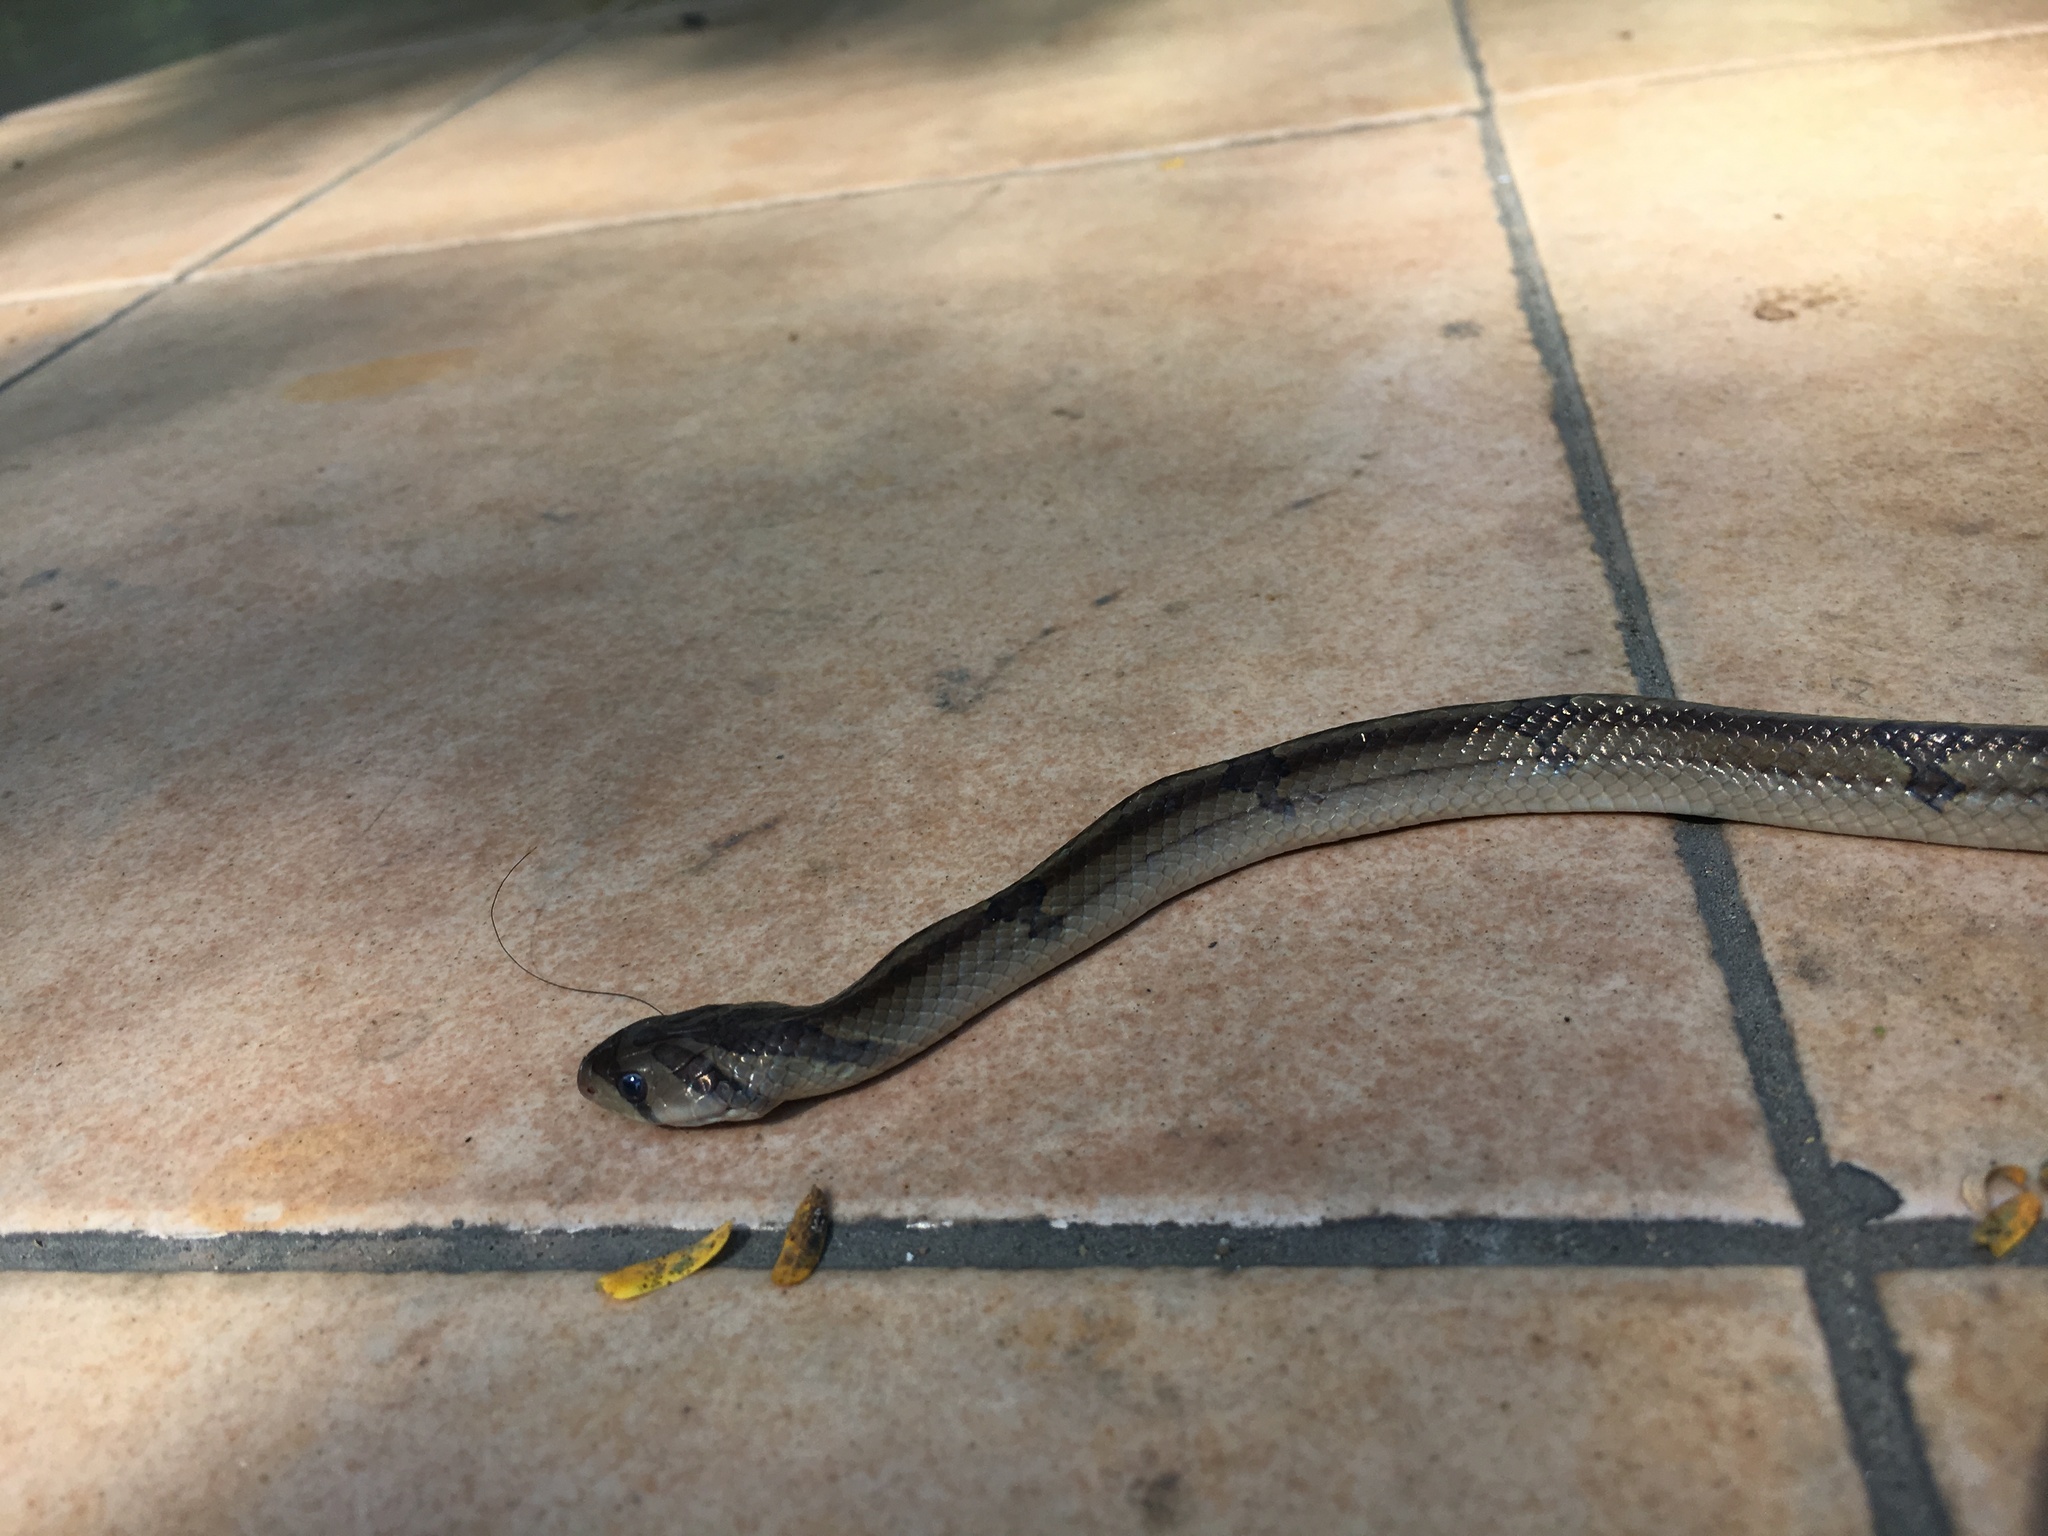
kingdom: Animalia
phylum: Chordata
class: Squamata
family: Colubridae
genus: Oligodon
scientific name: Oligodon fasciolatus
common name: Fasciolated kukri snake
